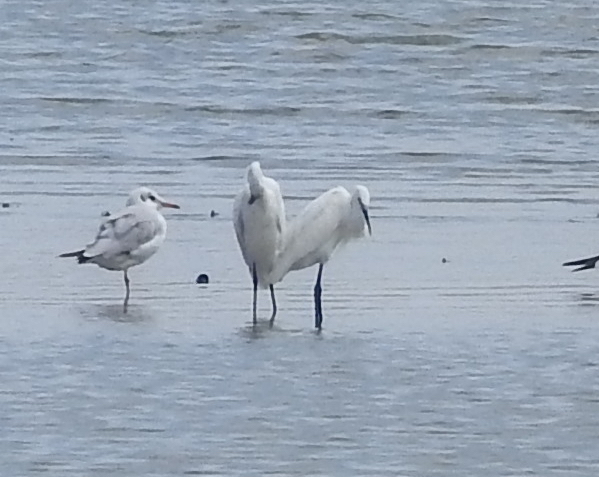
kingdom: Animalia
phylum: Chordata
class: Aves
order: Pelecaniformes
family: Ardeidae
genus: Egretta
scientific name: Egretta garzetta
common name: Little egret
